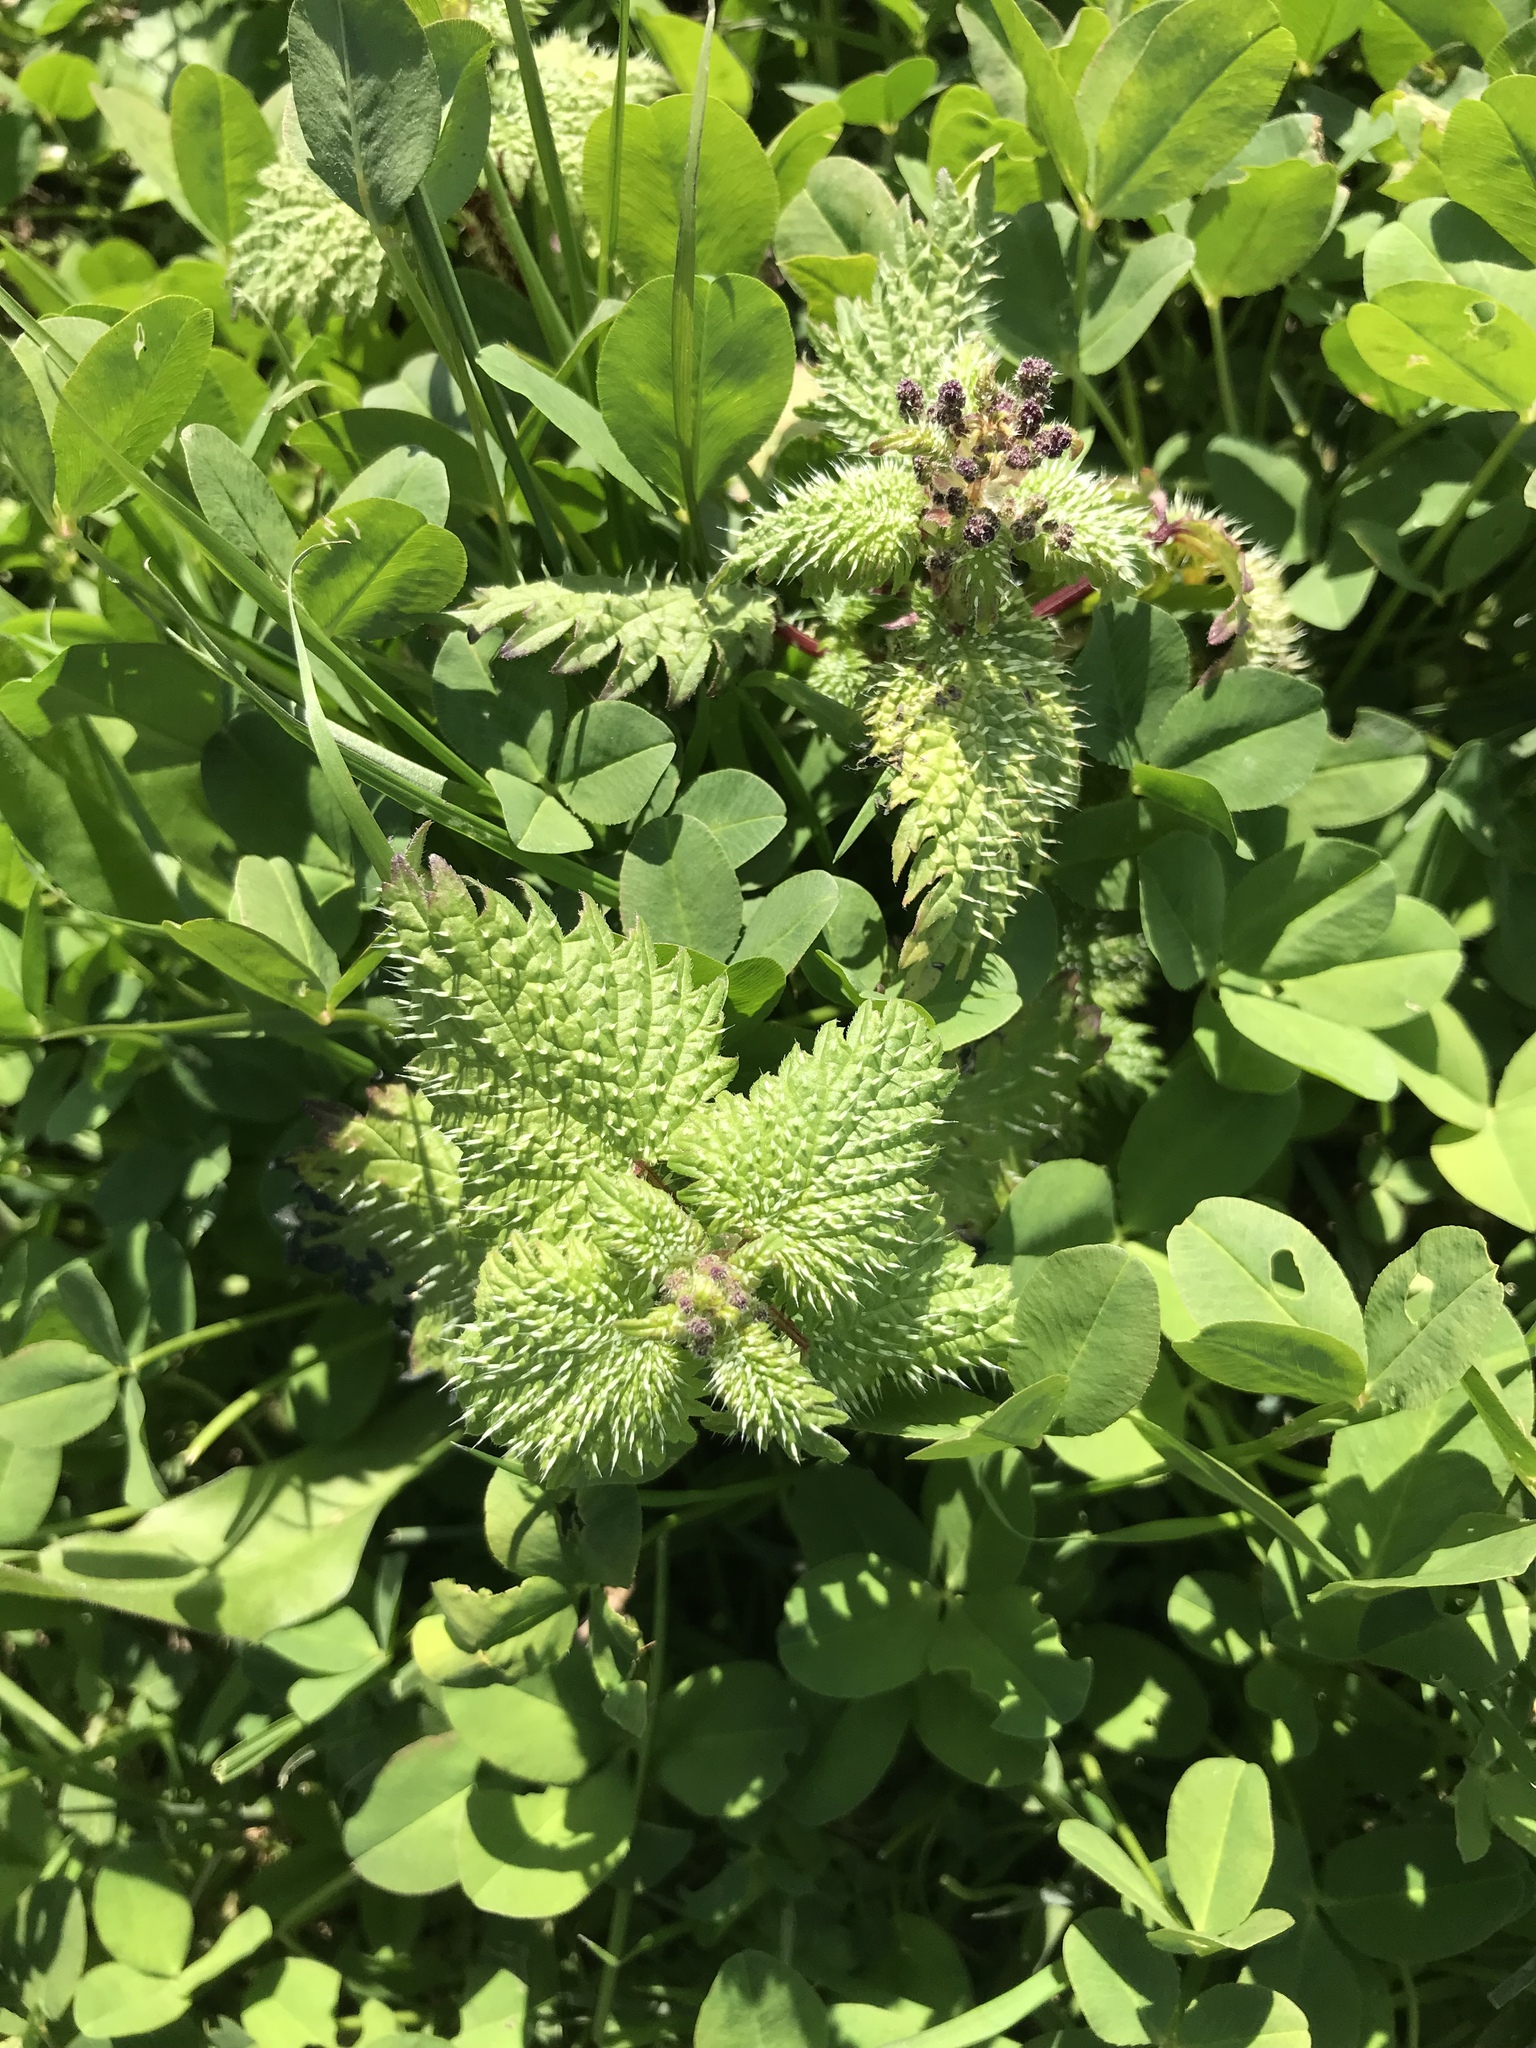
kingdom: Plantae
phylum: Tracheophyta
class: Magnoliopsida
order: Rosales
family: Urticaceae
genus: Urtica
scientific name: Urtica pilulifera
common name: Roman nettle
